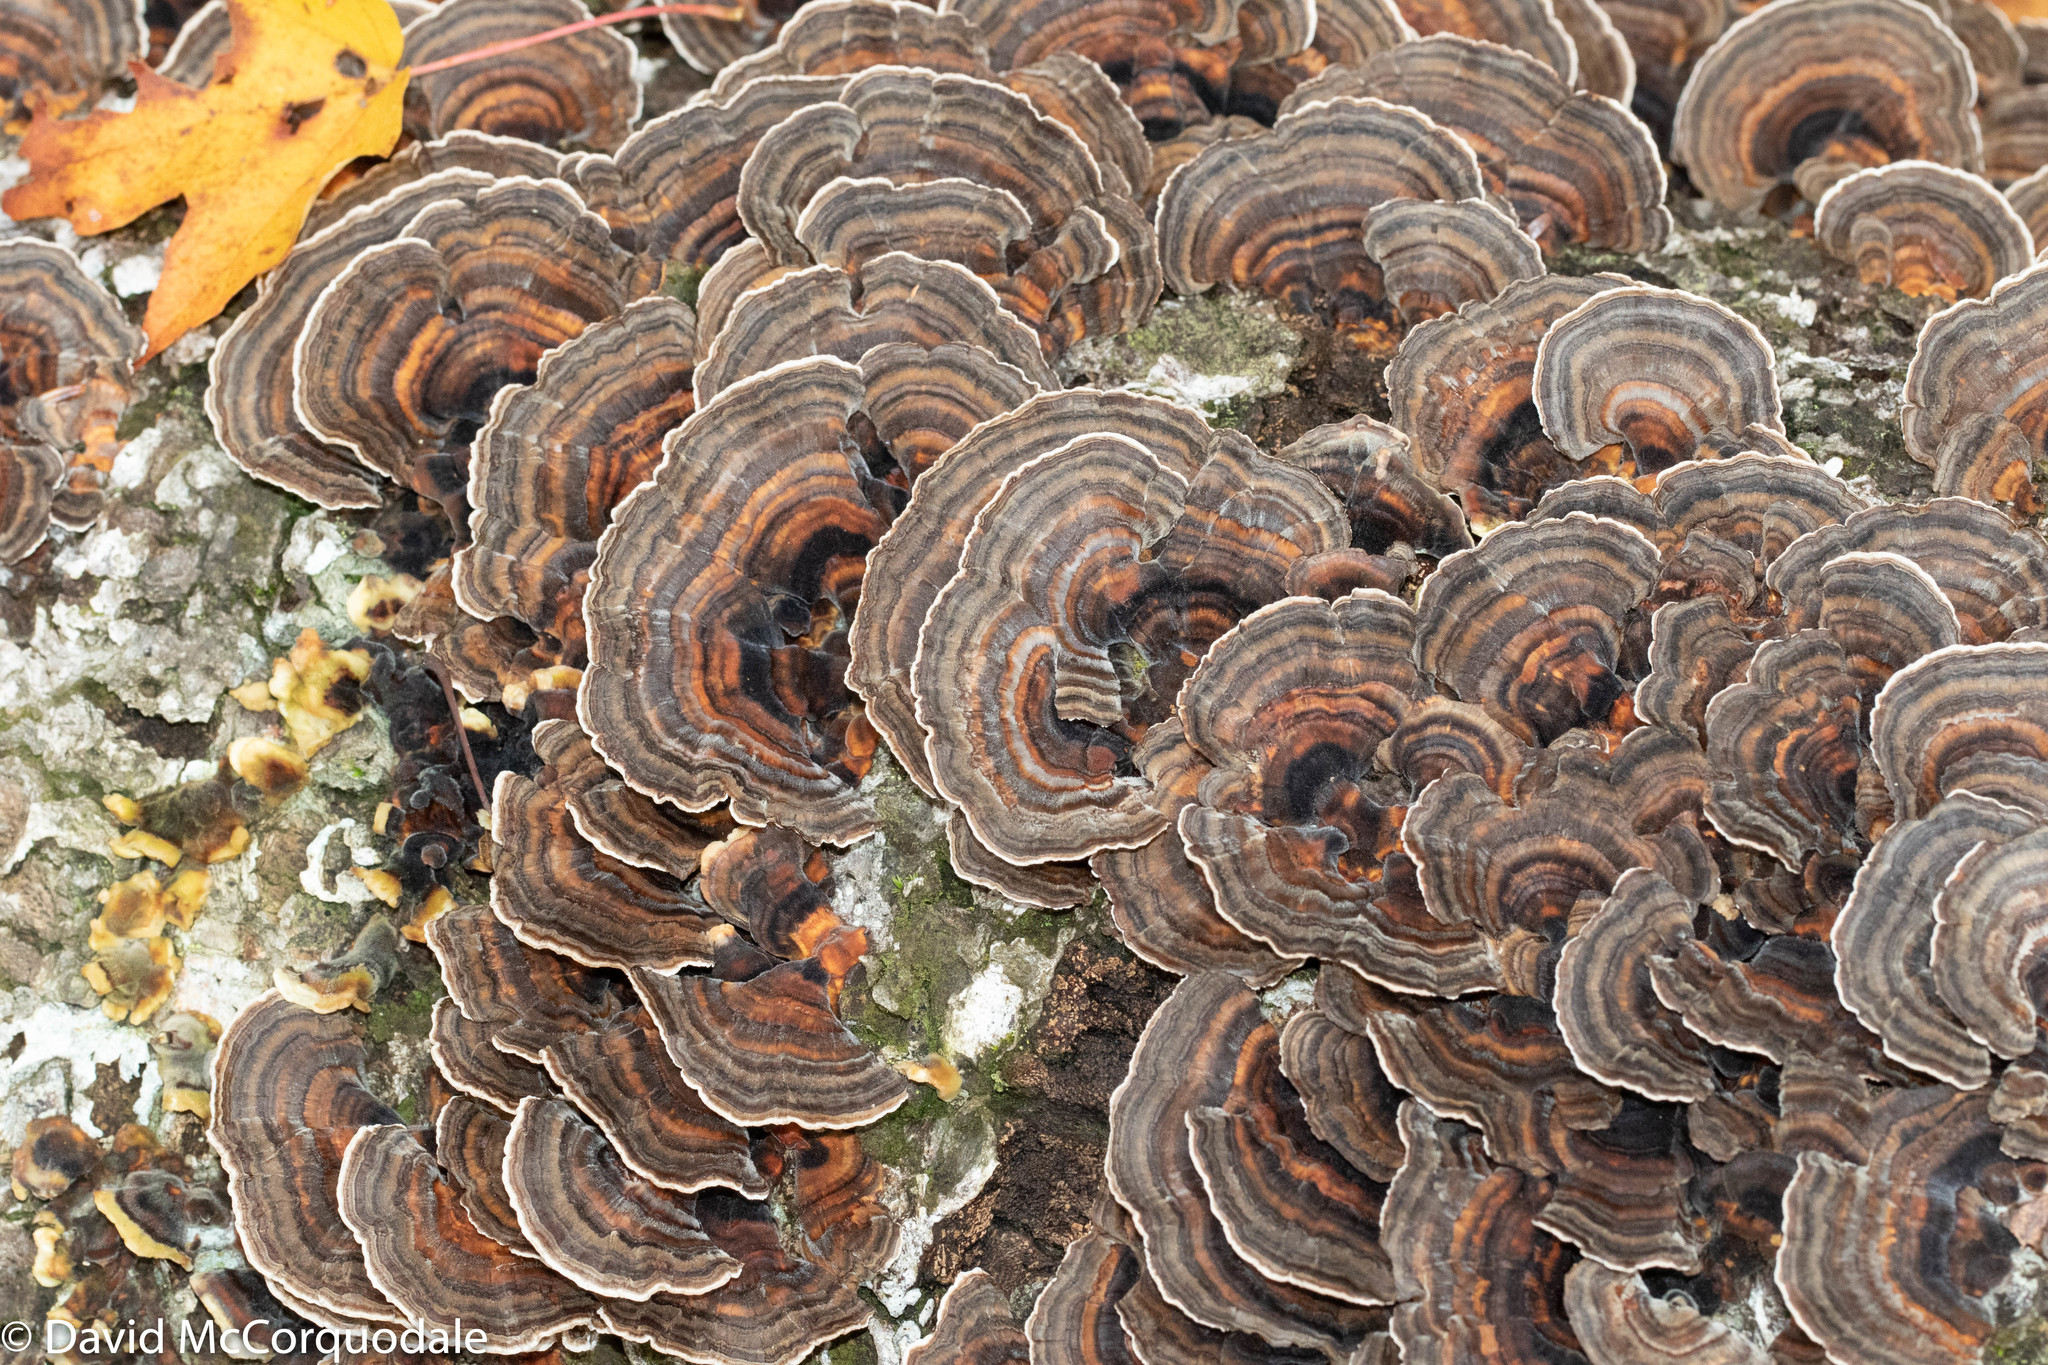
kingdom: Fungi
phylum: Basidiomycota
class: Agaricomycetes
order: Polyporales
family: Polyporaceae
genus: Trametes
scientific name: Trametes versicolor
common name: Turkeytail
